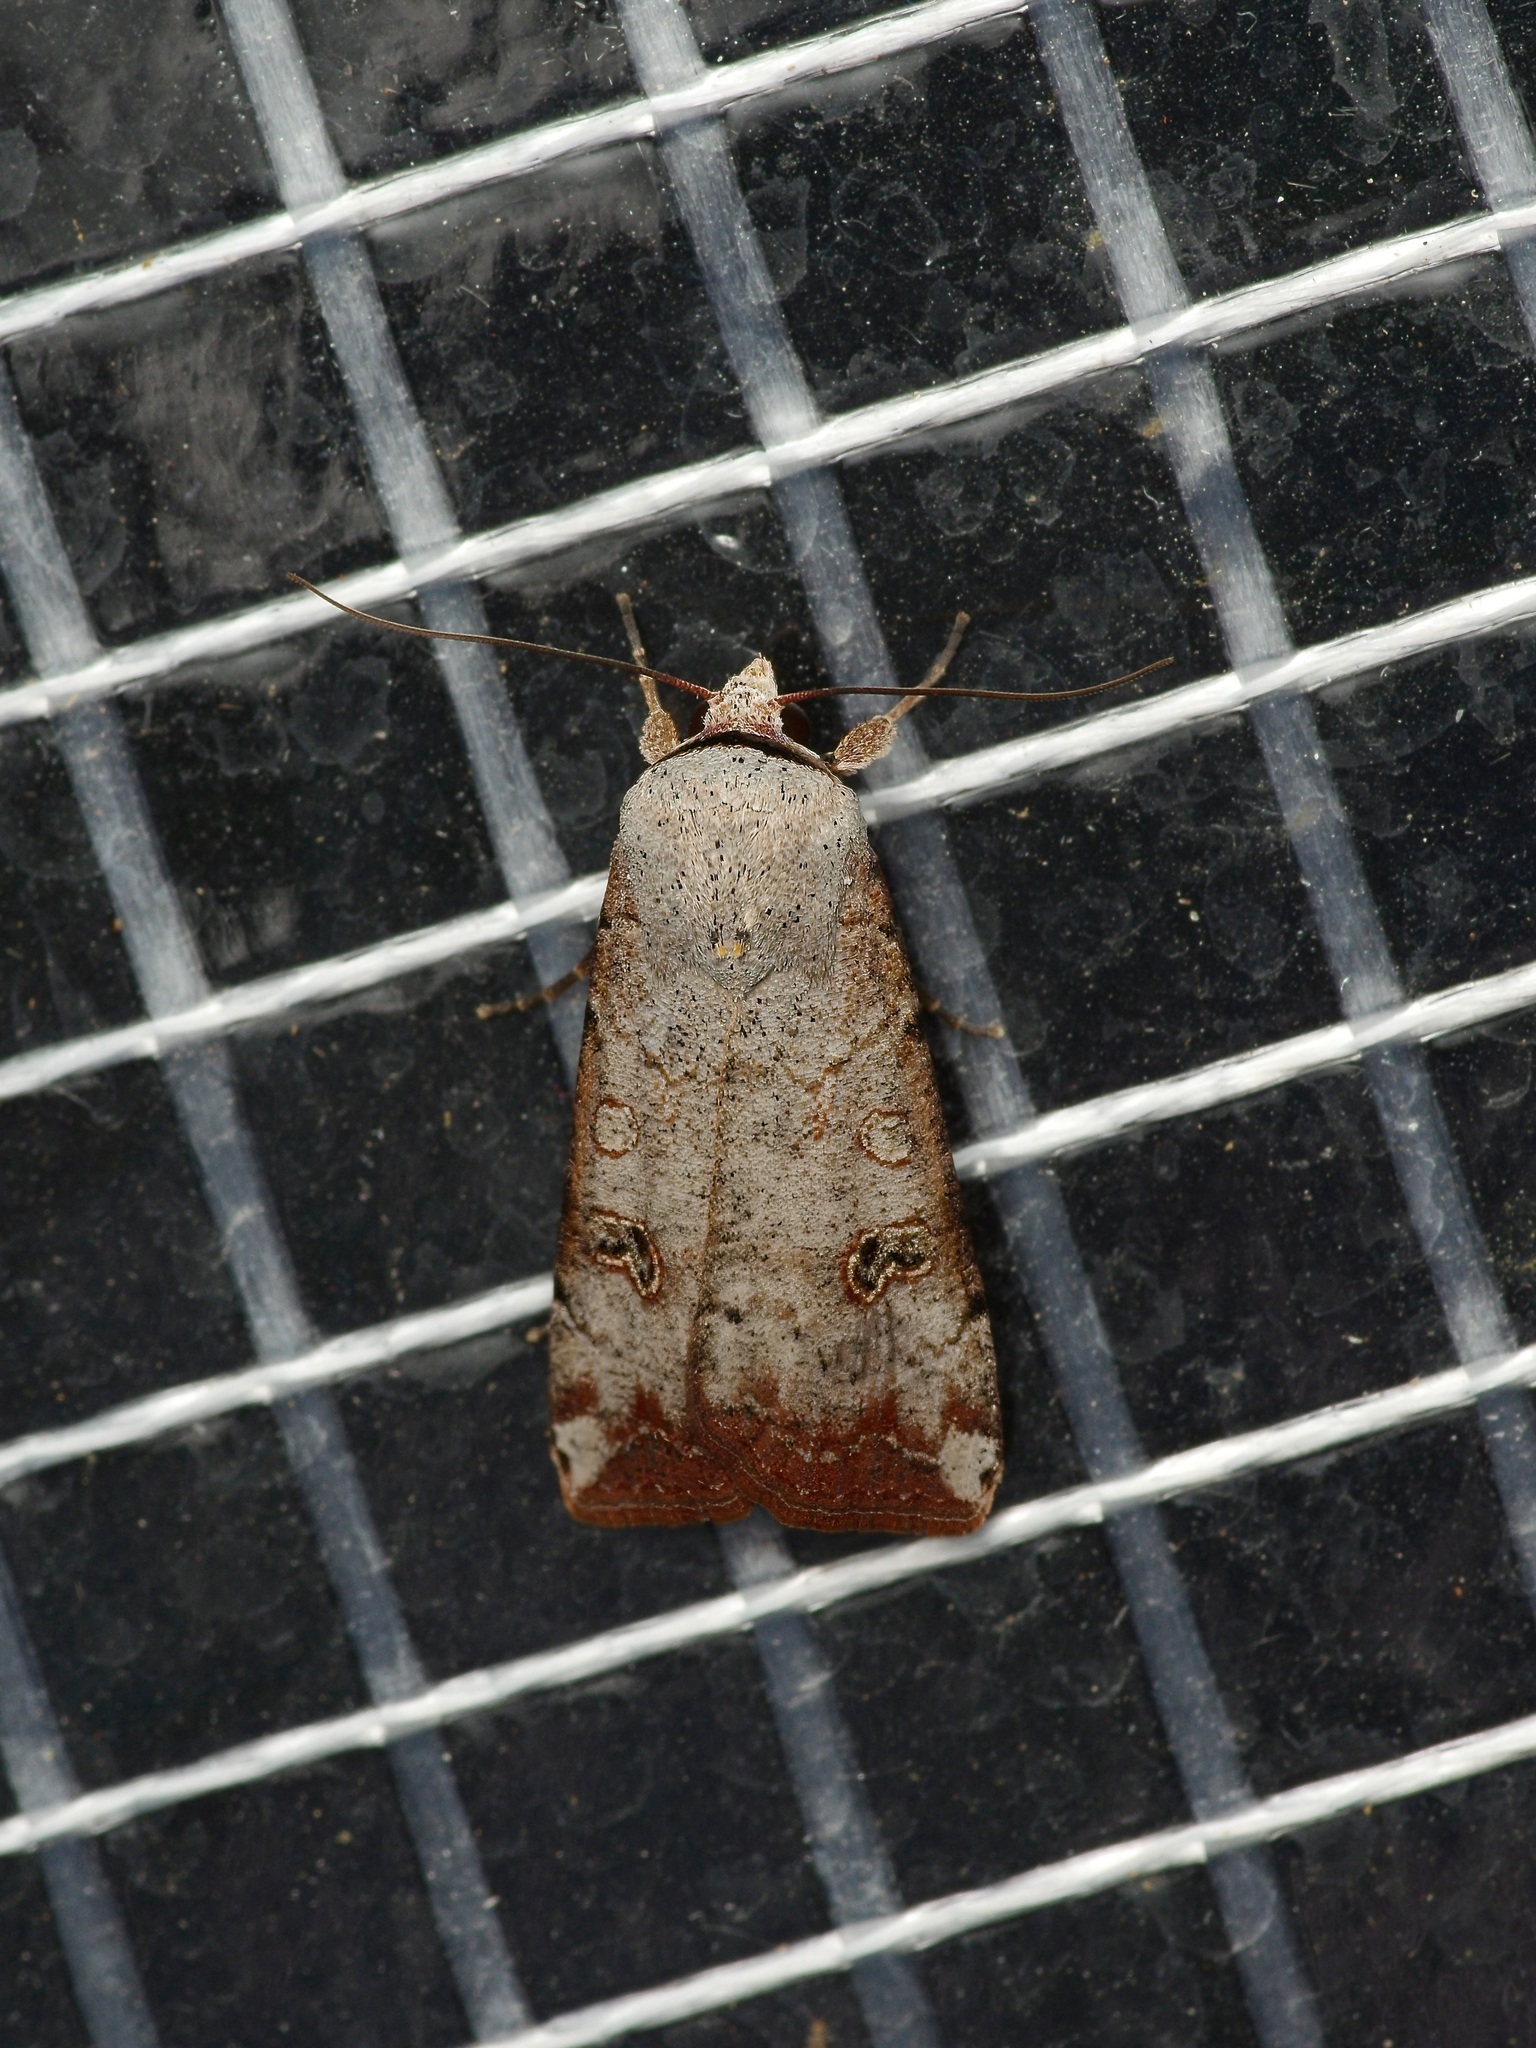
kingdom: Animalia
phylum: Arthropoda
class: Insecta
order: Lepidoptera
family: Noctuidae
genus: Anicla
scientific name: Anicla infecta
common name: Green cutworm
